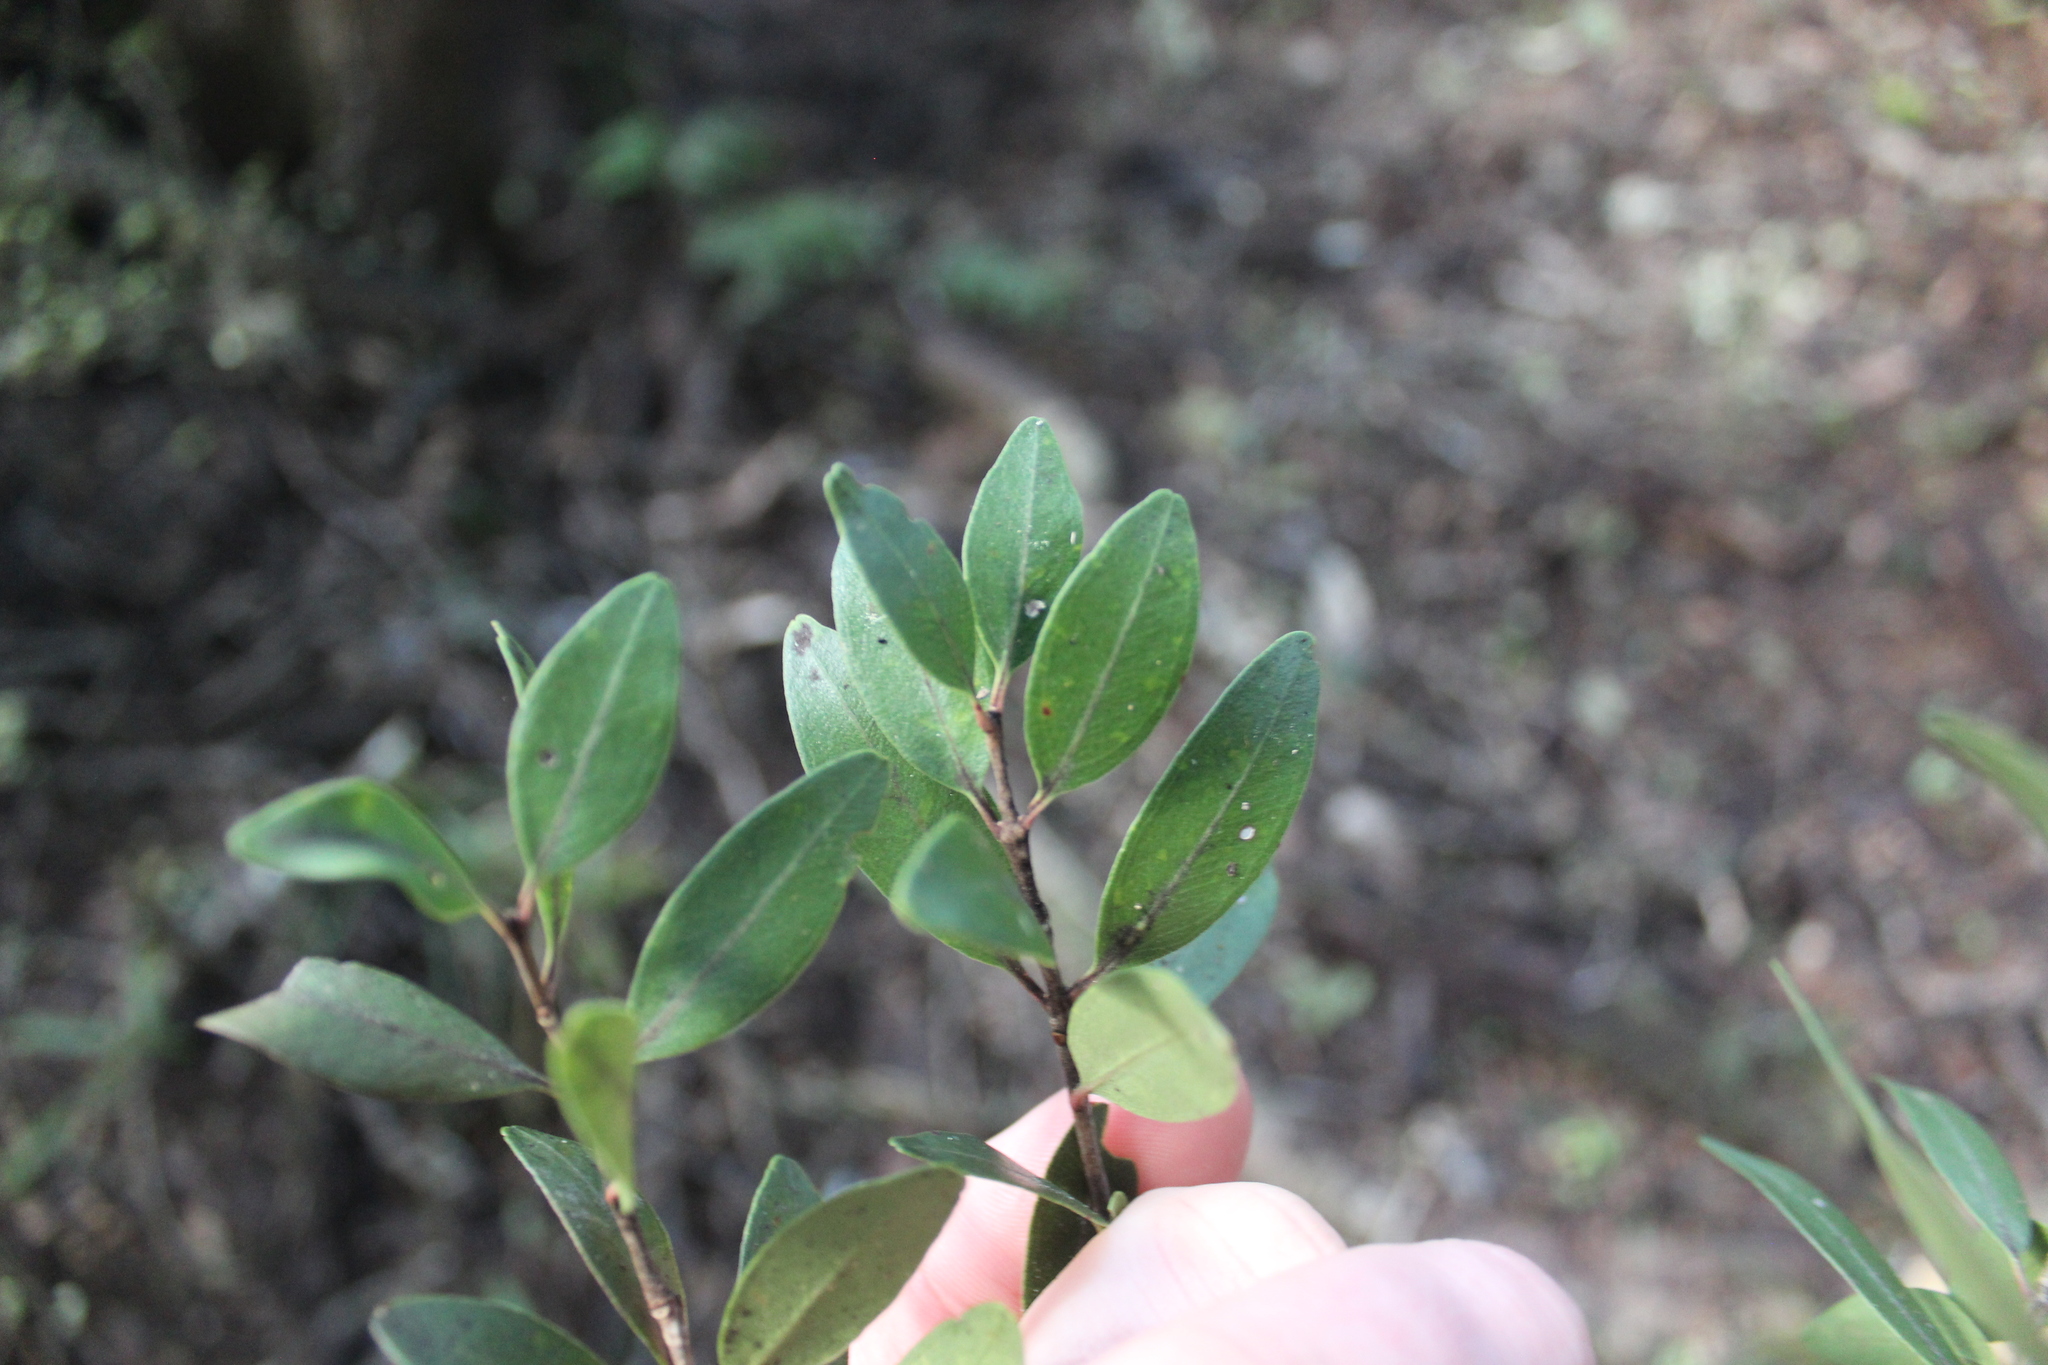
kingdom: Plantae
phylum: Tracheophyta
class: Magnoliopsida
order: Myrtales
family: Myrtaceae
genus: Metrosideros
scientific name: Metrosideros robusta
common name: Northern rata
